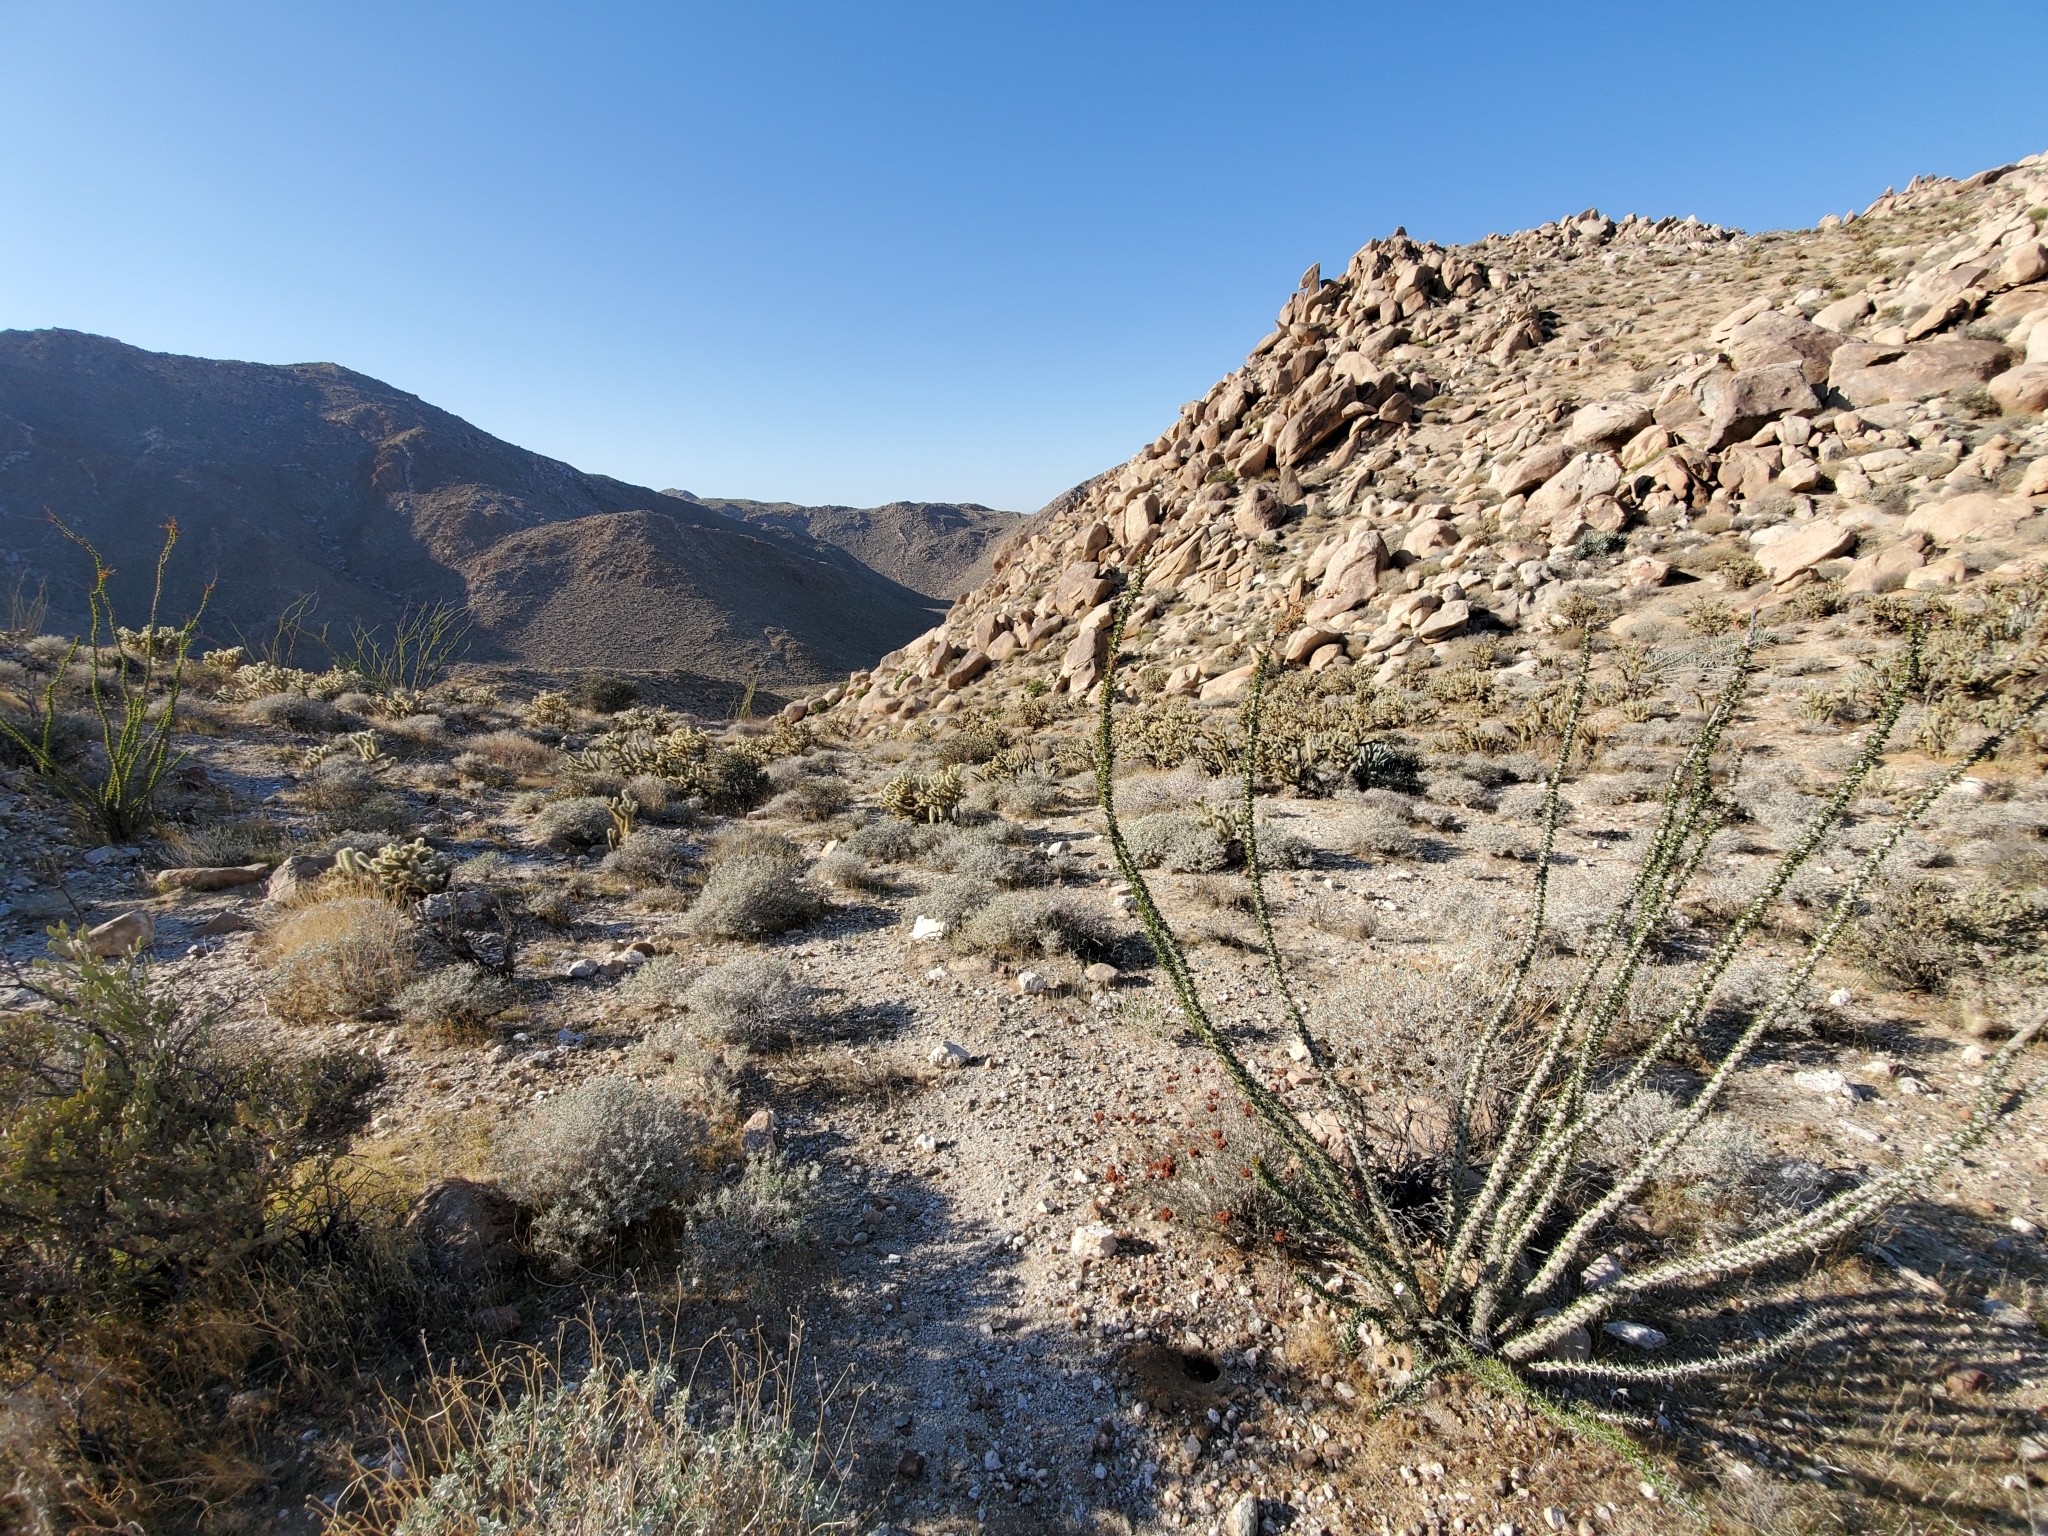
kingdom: Plantae
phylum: Tracheophyta
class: Magnoliopsida
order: Ericales
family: Fouquieriaceae
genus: Fouquieria
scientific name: Fouquieria splendens
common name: Vine-cactus
